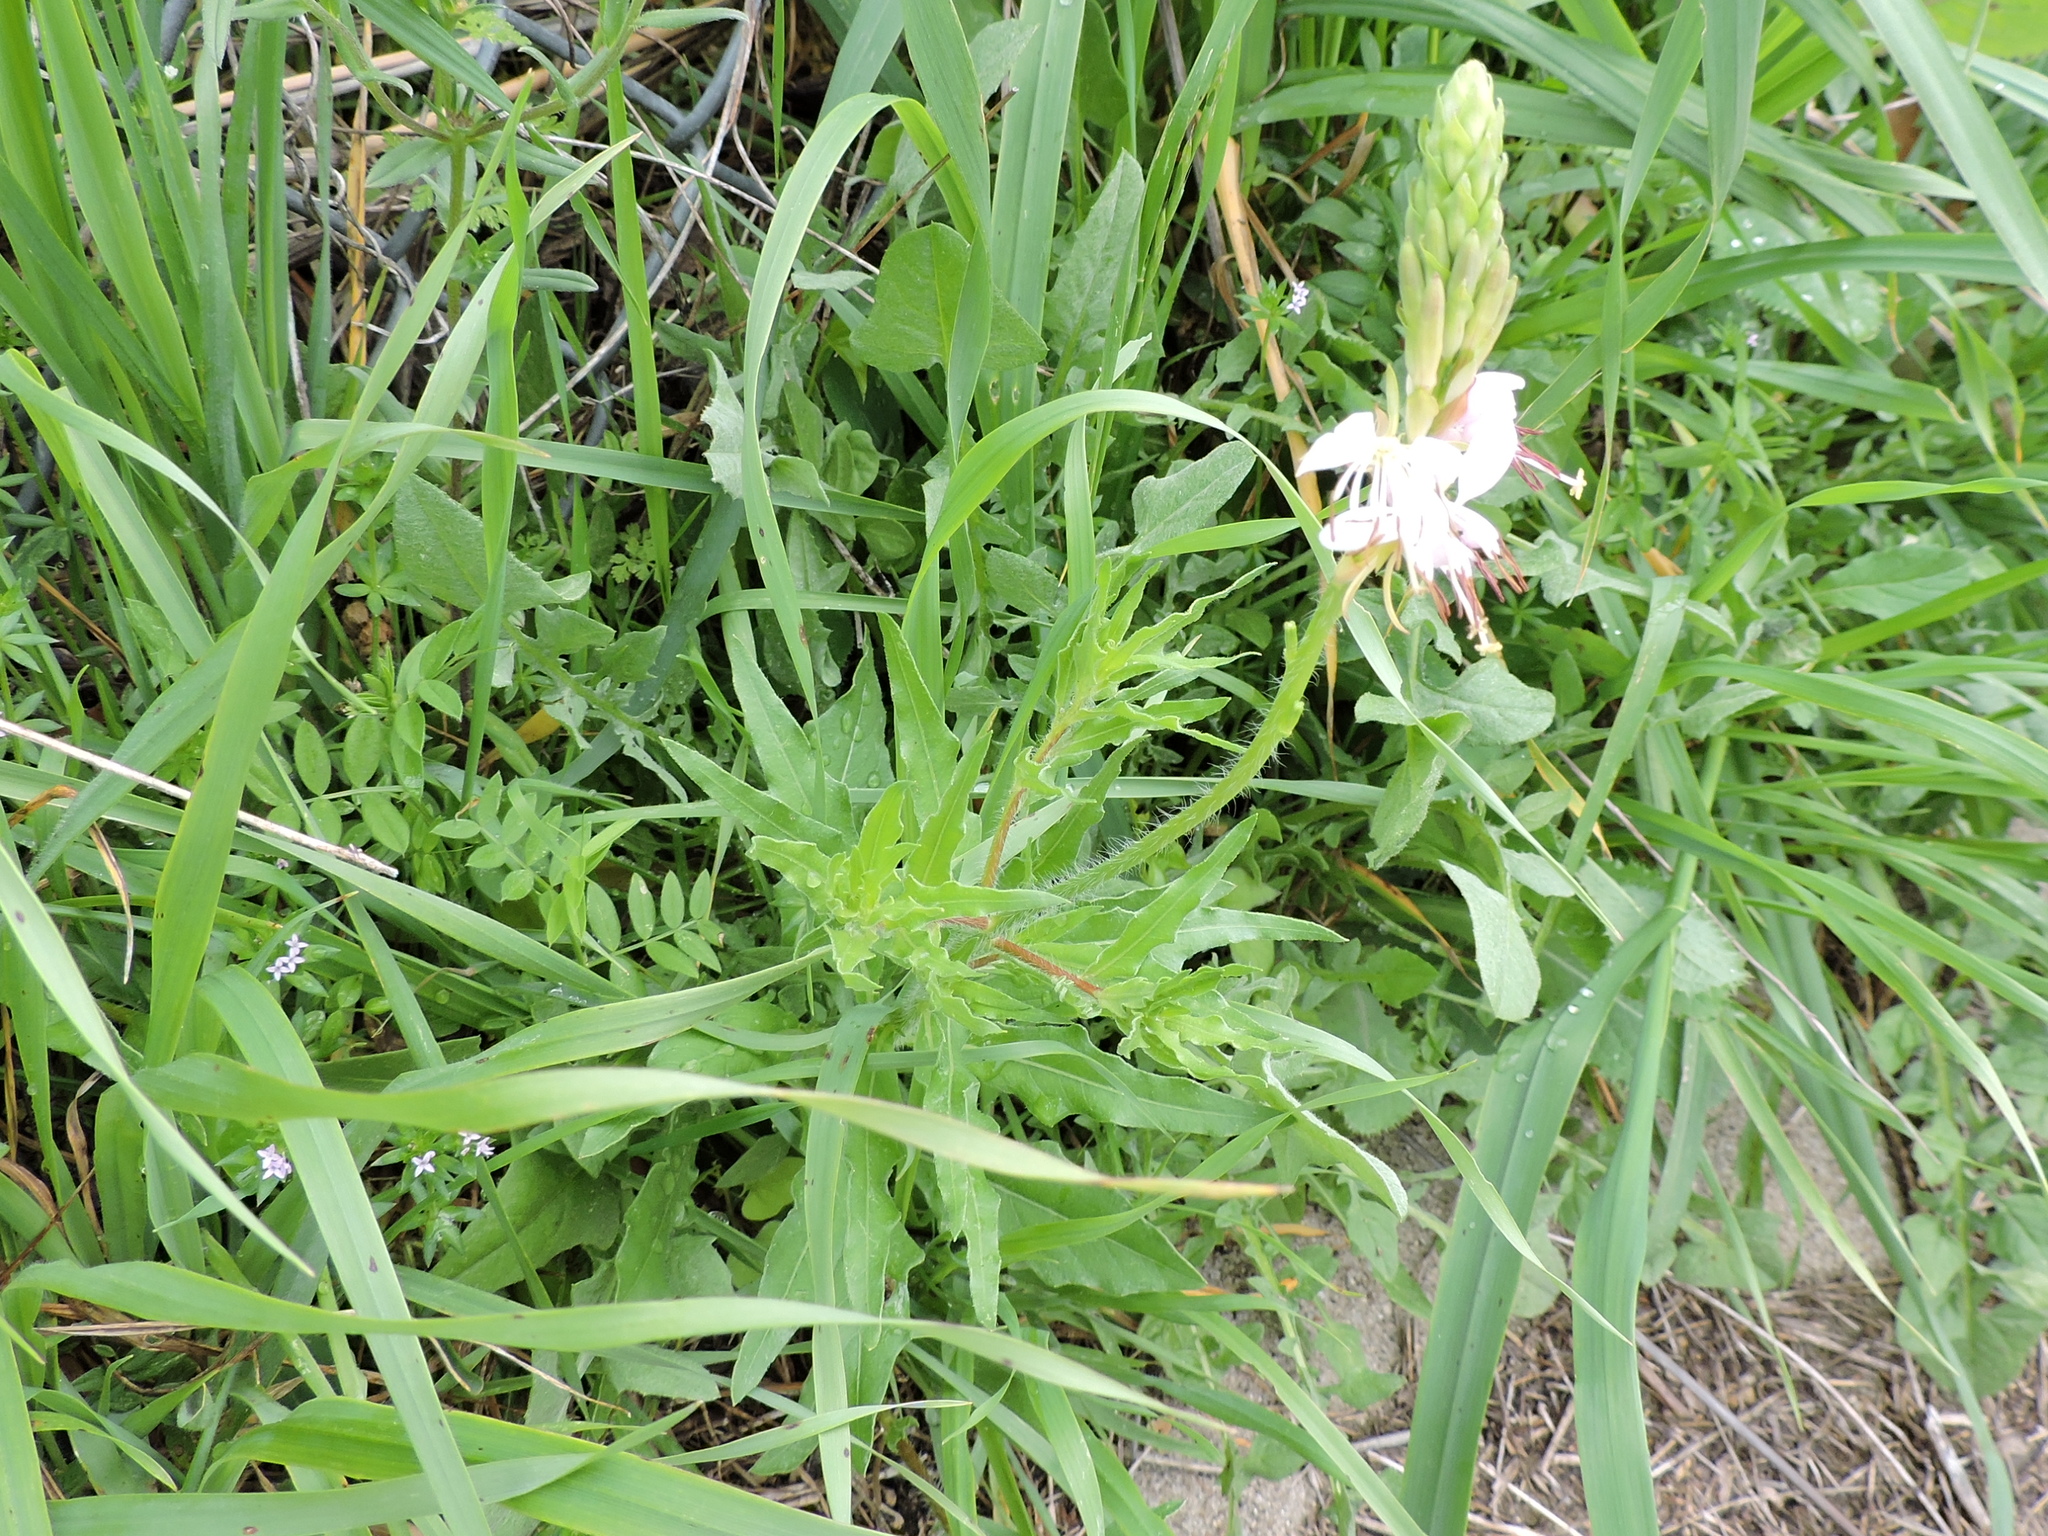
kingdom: Plantae
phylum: Tracheophyta
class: Magnoliopsida
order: Myrtales
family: Onagraceae
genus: Oenothera
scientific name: Oenothera suffulta
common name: Kisses
